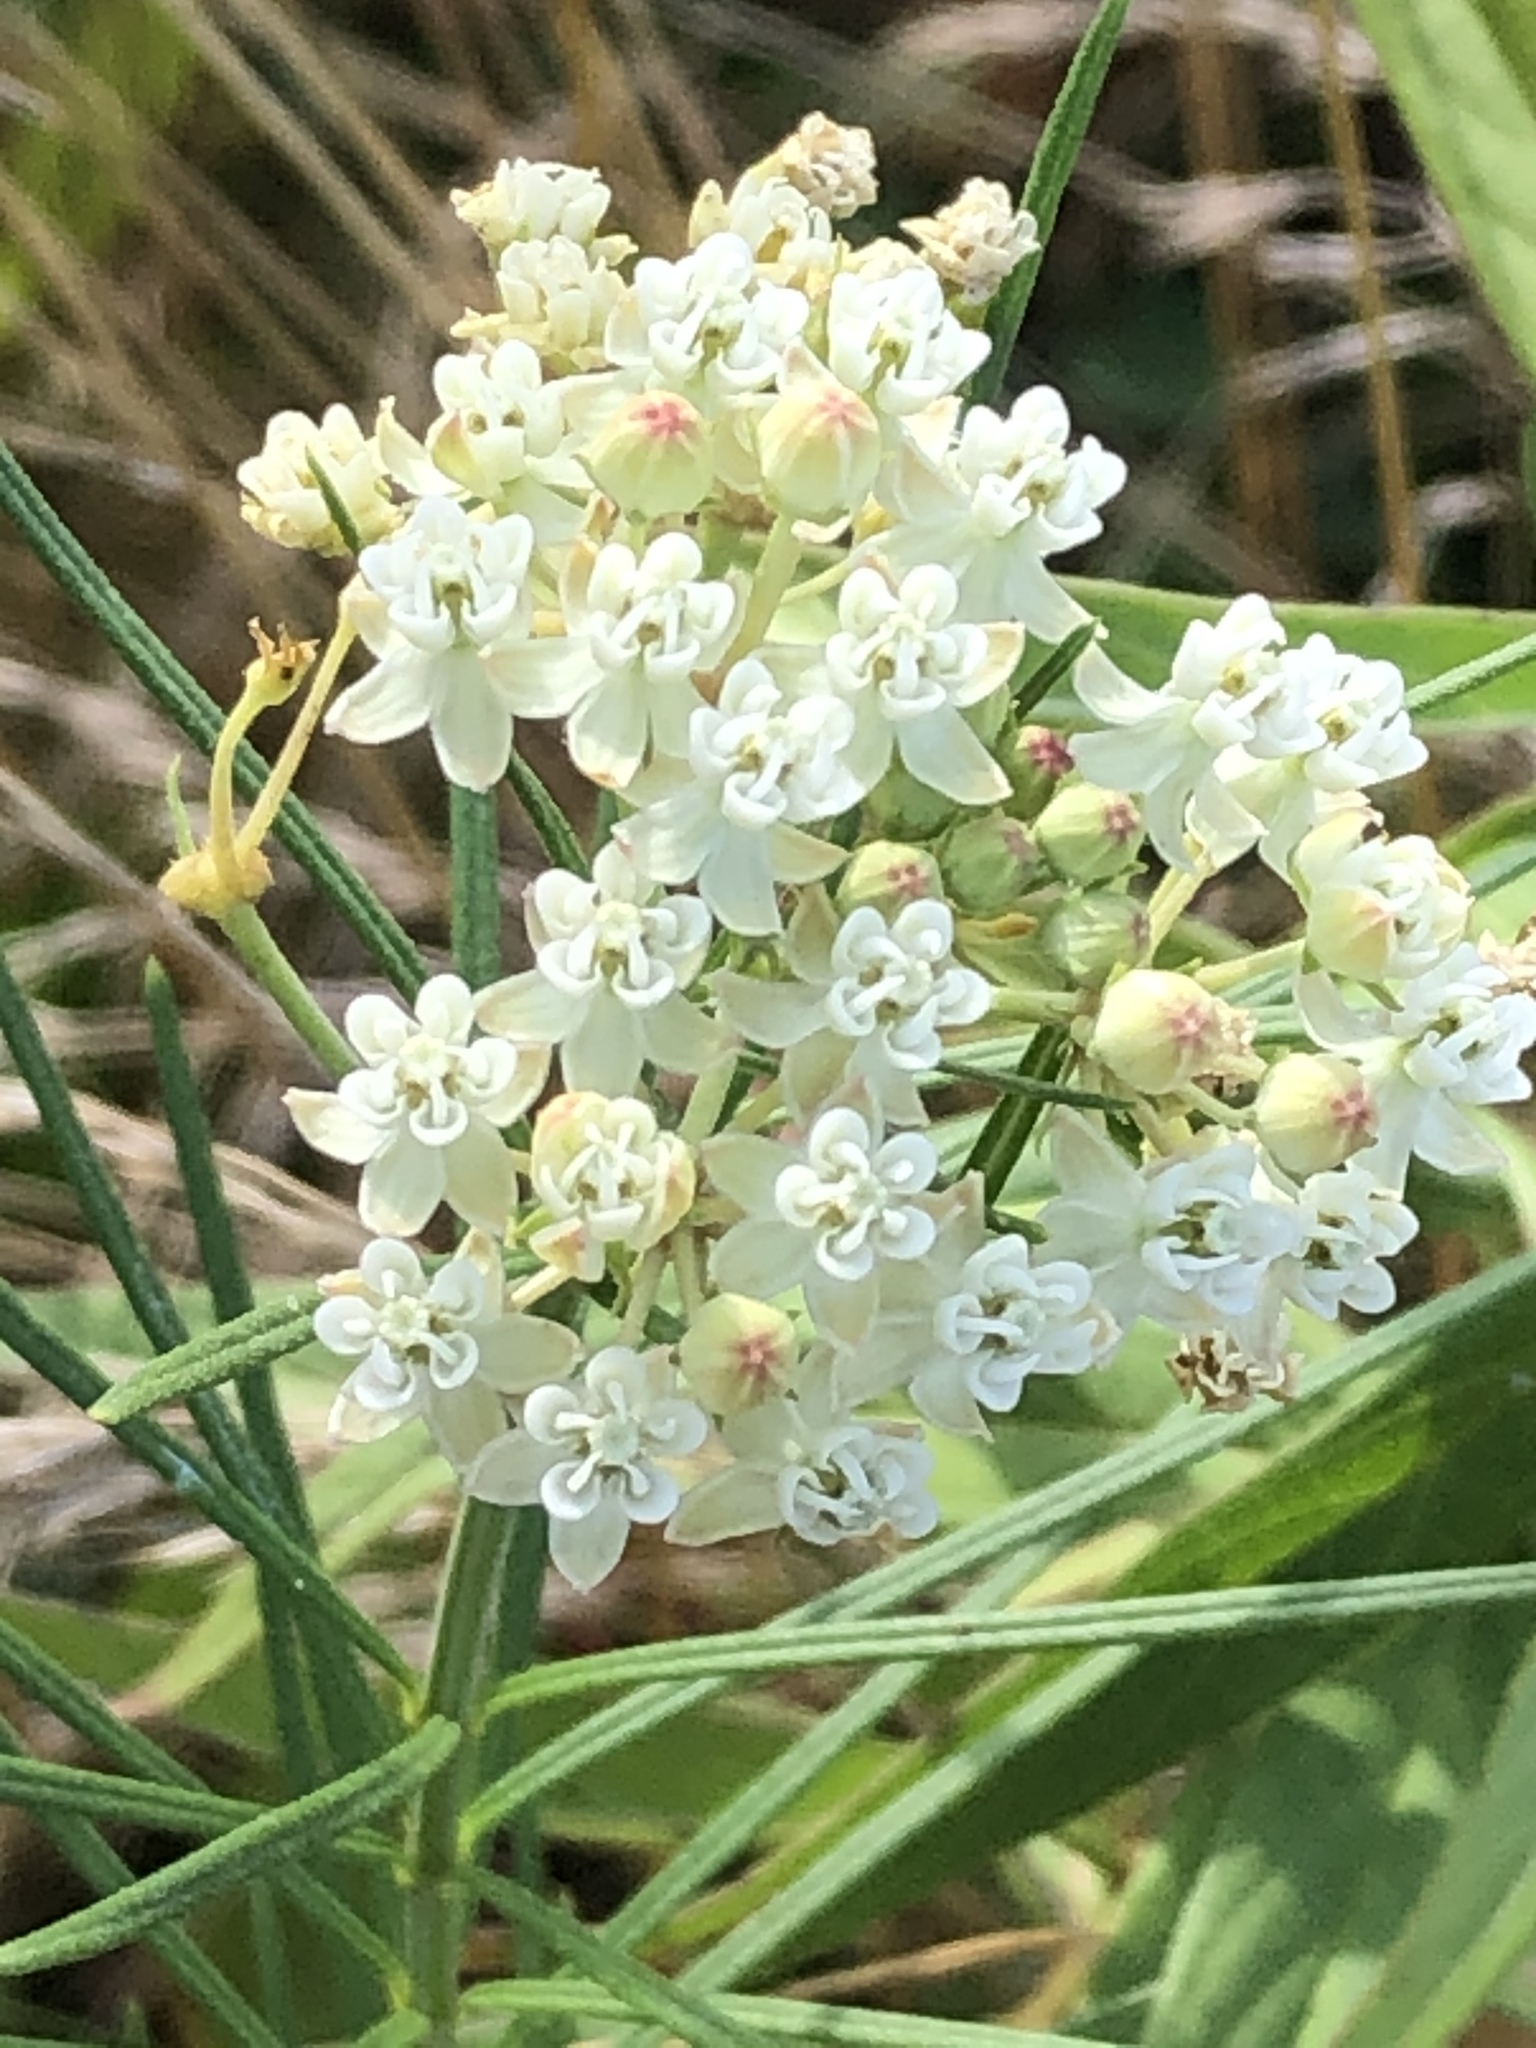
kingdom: Plantae
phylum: Tracheophyta
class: Magnoliopsida
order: Gentianales
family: Apocynaceae
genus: Asclepias
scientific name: Asclepias verticillata
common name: Eastern whorled milkweed
